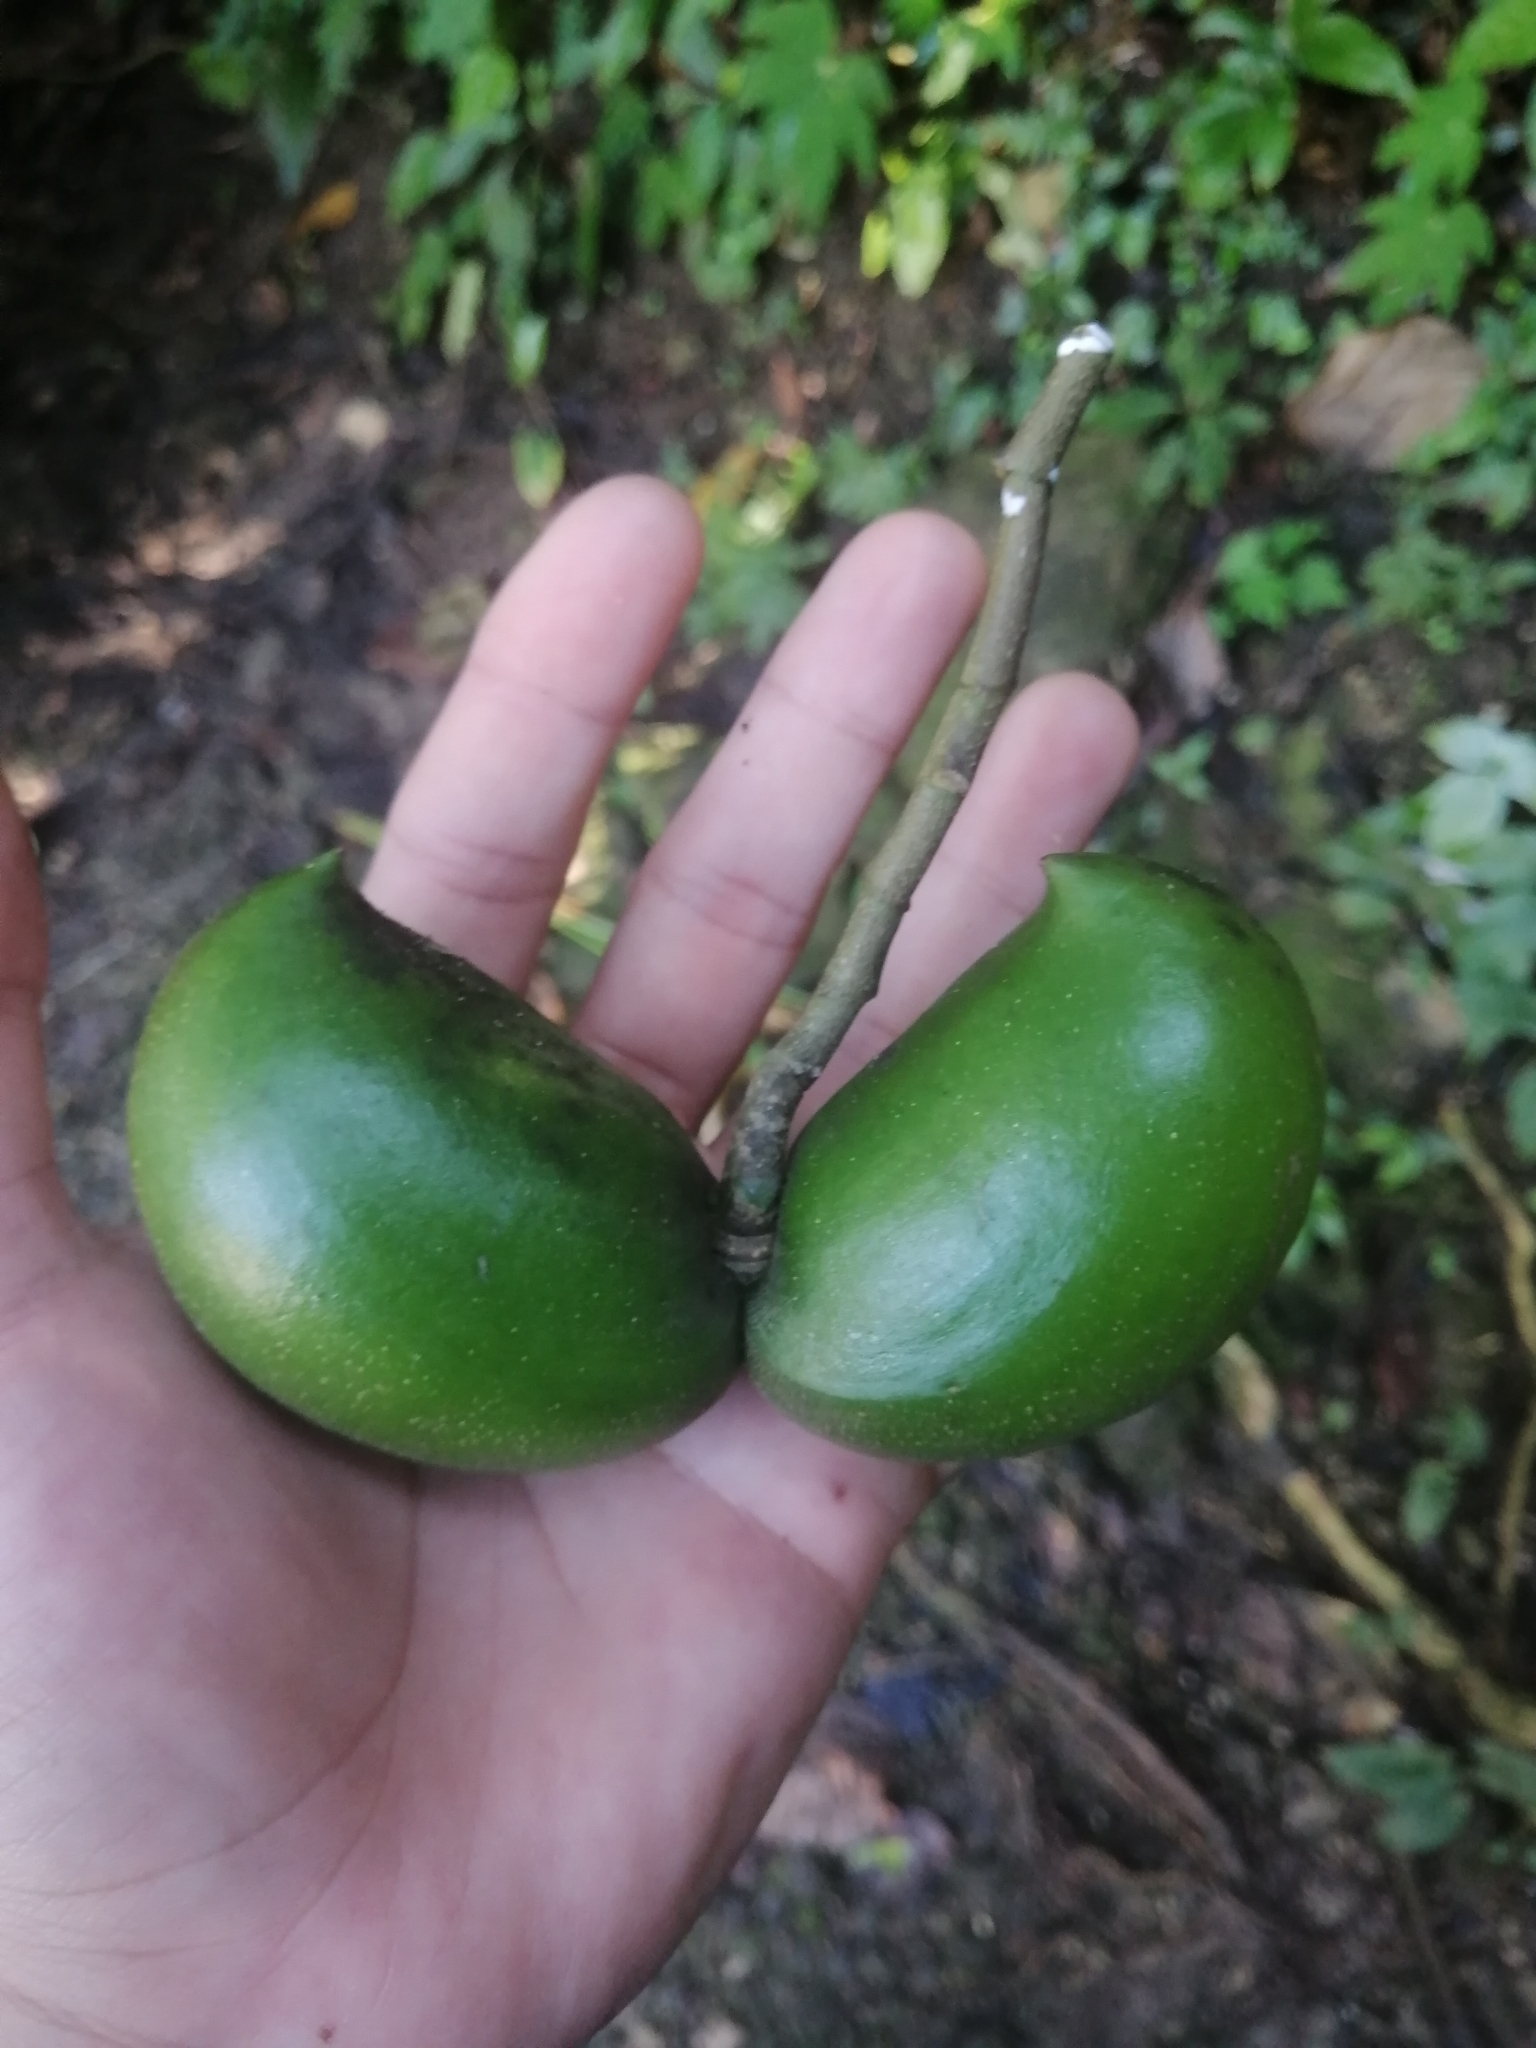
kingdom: Plantae
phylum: Tracheophyta
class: Magnoliopsida
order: Gentianales
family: Apocynaceae
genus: Tabernaemontana
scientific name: Tabernaemontana donnell-smithii
